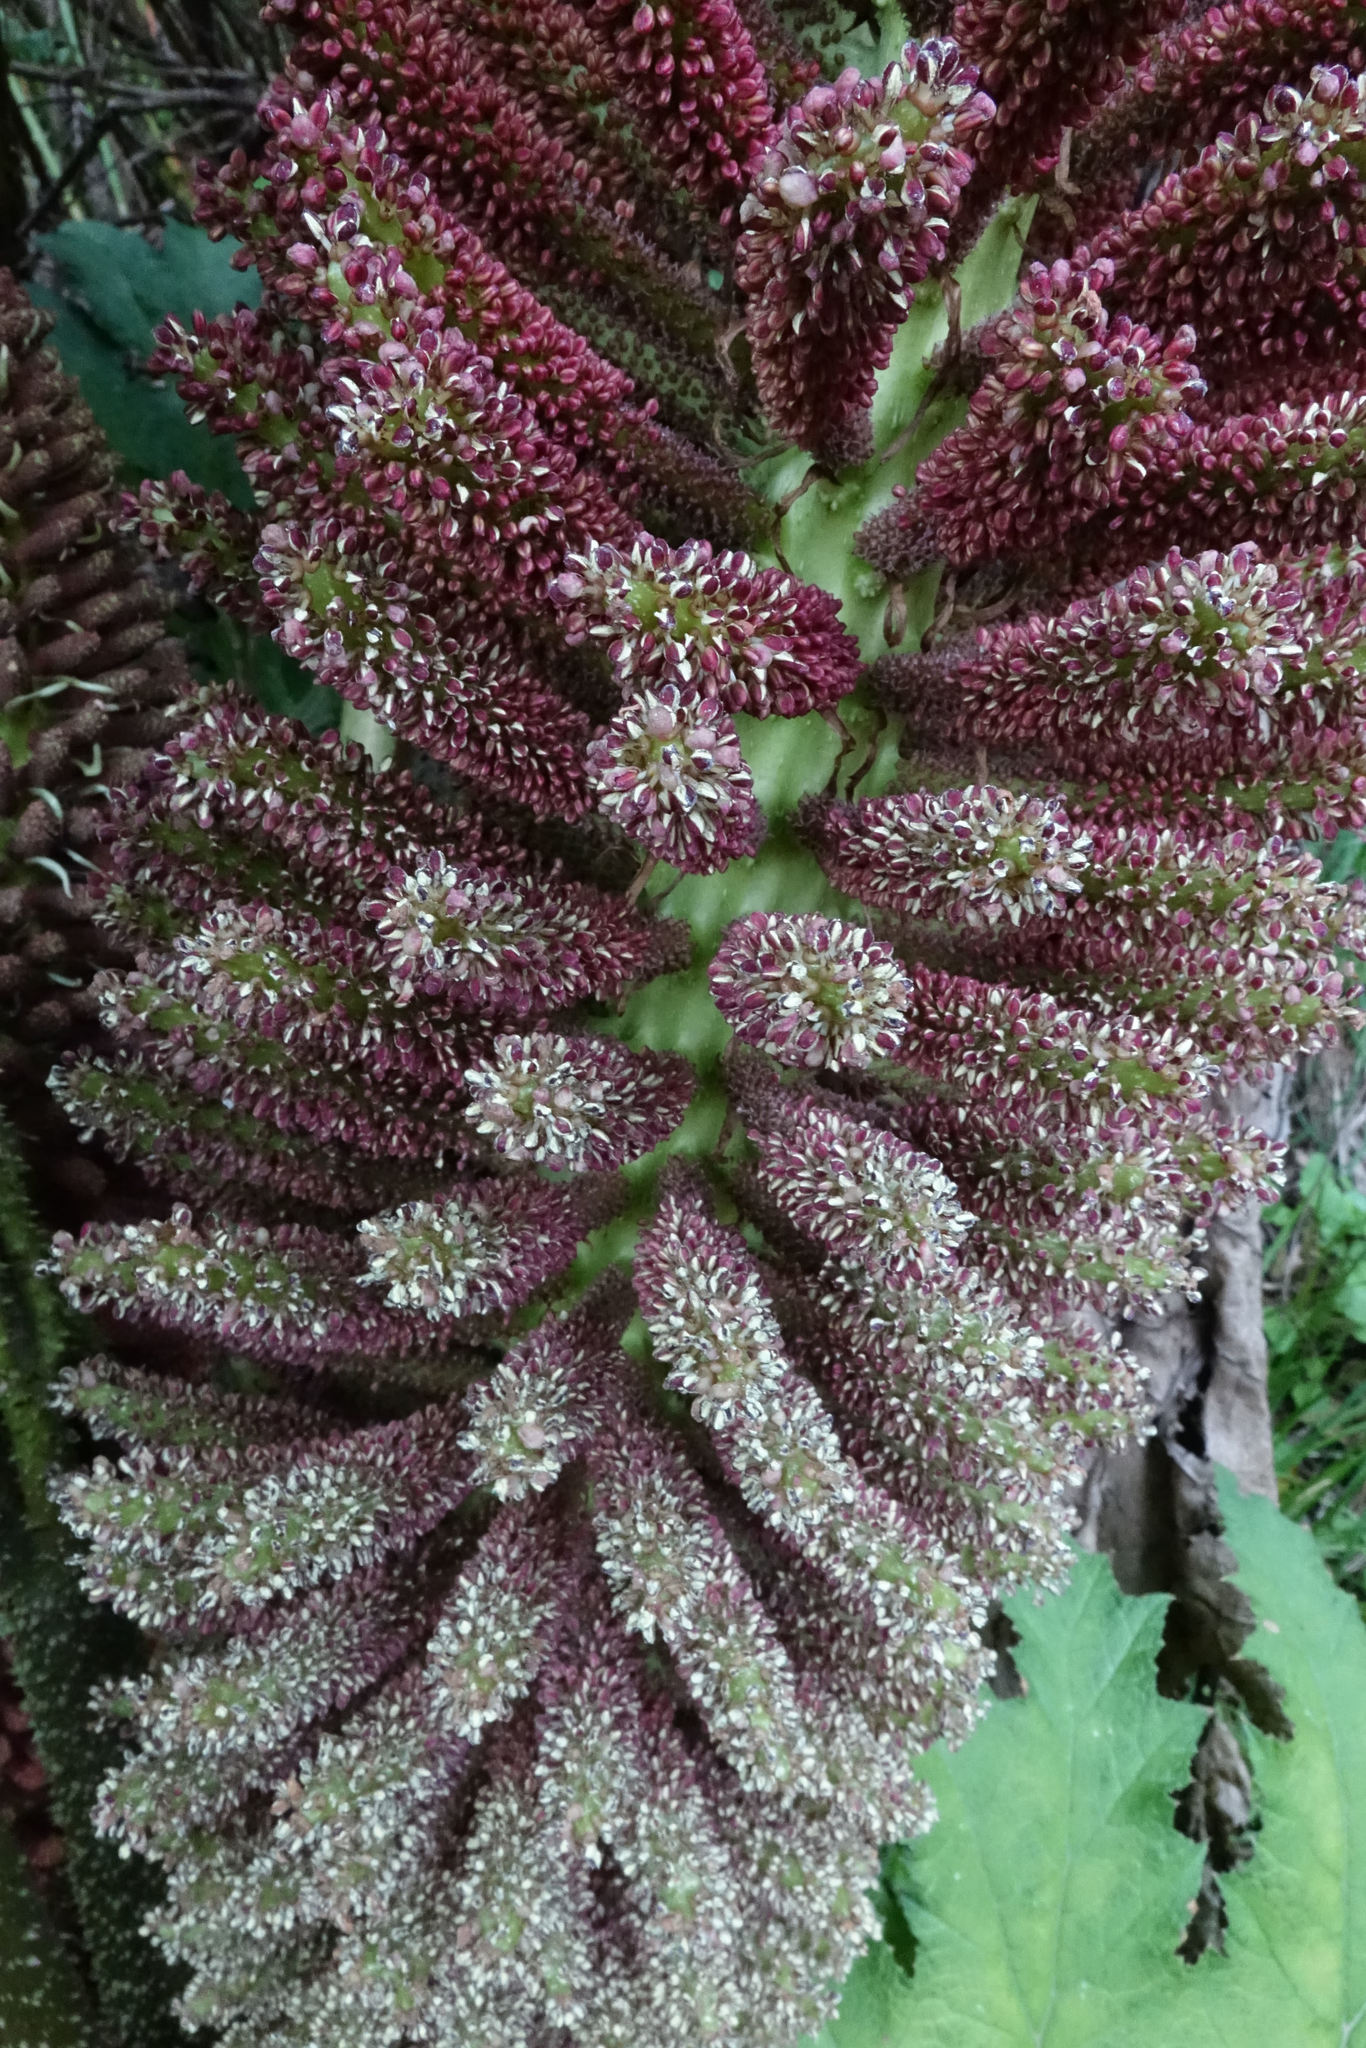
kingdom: Plantae
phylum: Tracheophyta
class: Magnoliopsida
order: Gunnerales
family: Gunneraceae
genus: Gunnera
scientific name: Gunnera tinctoria
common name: Giant-rhubarb
